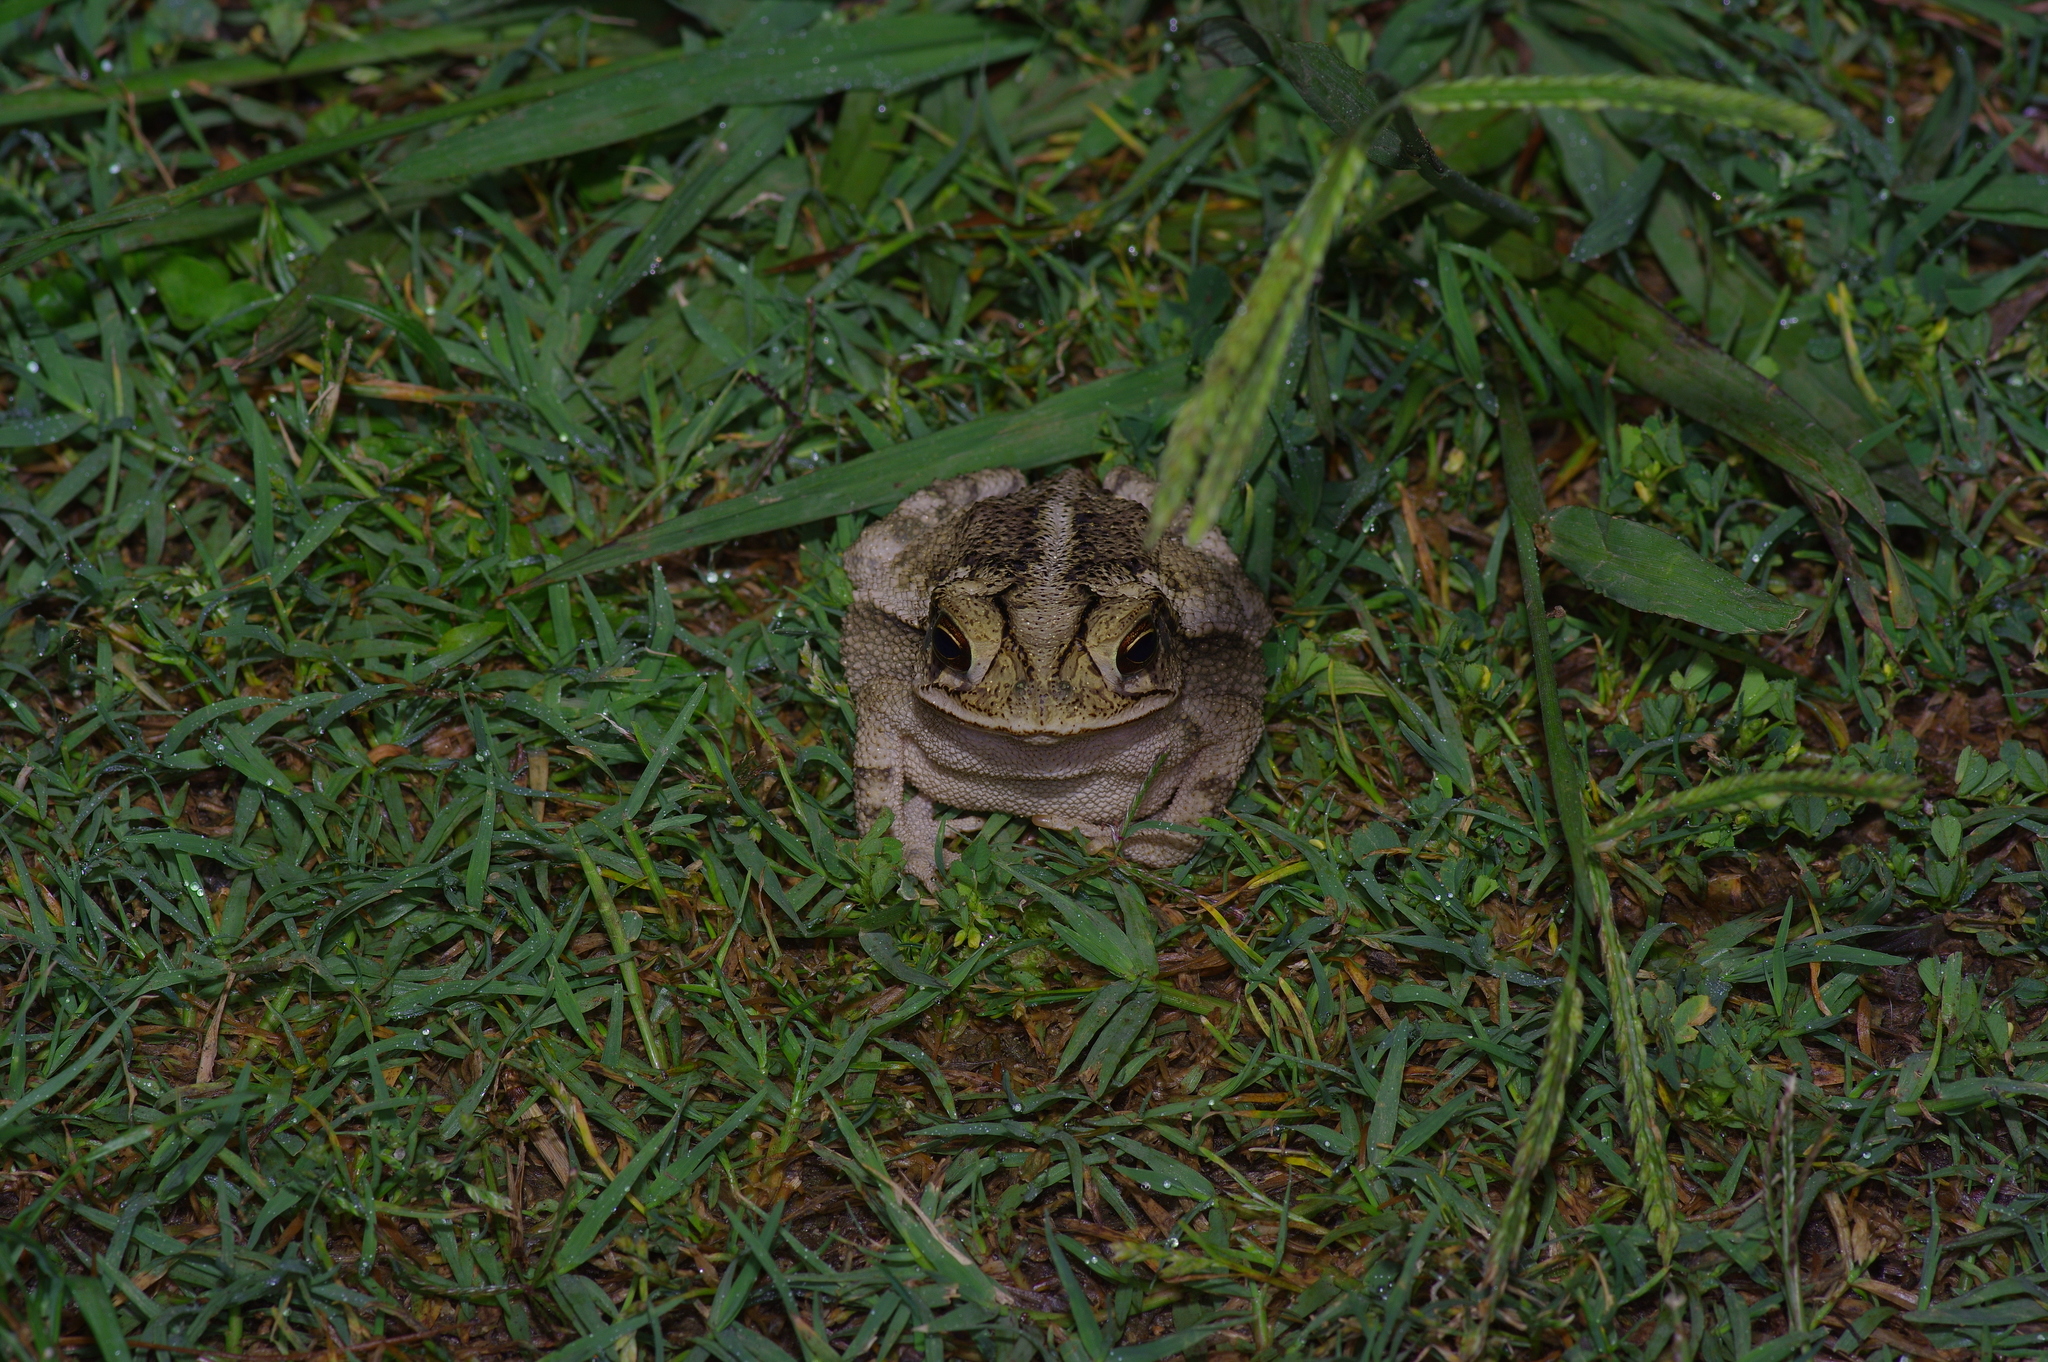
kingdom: Animalia
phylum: Chordata
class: Amphibia
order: Anura
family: Bufonidae
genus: Incilius
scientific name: Incilius nebulifer
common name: Gulf coast toad
